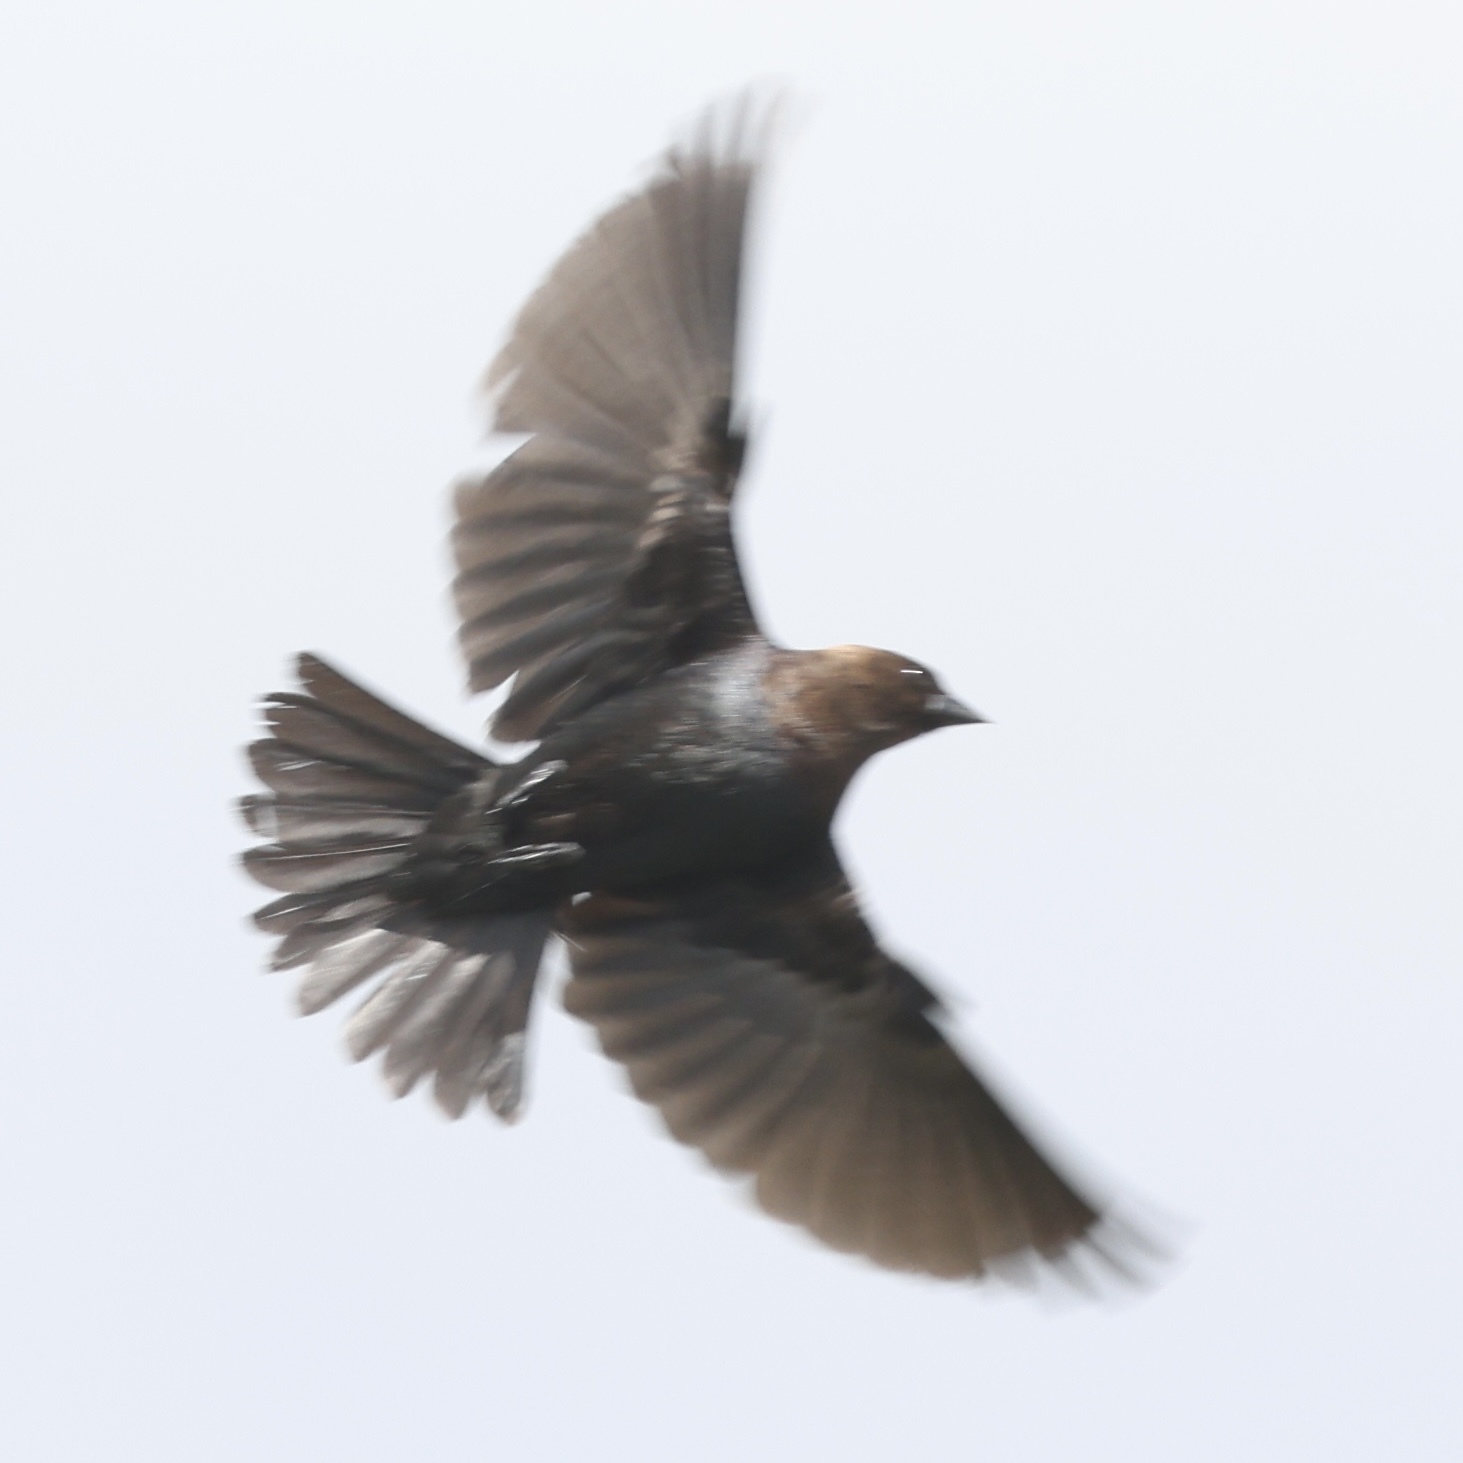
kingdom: Animalia
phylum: Chordata
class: Aves
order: Passeriformes
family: Icteridae
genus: Molothrus
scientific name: Molothrus ater
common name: Brown-headed cowbird
